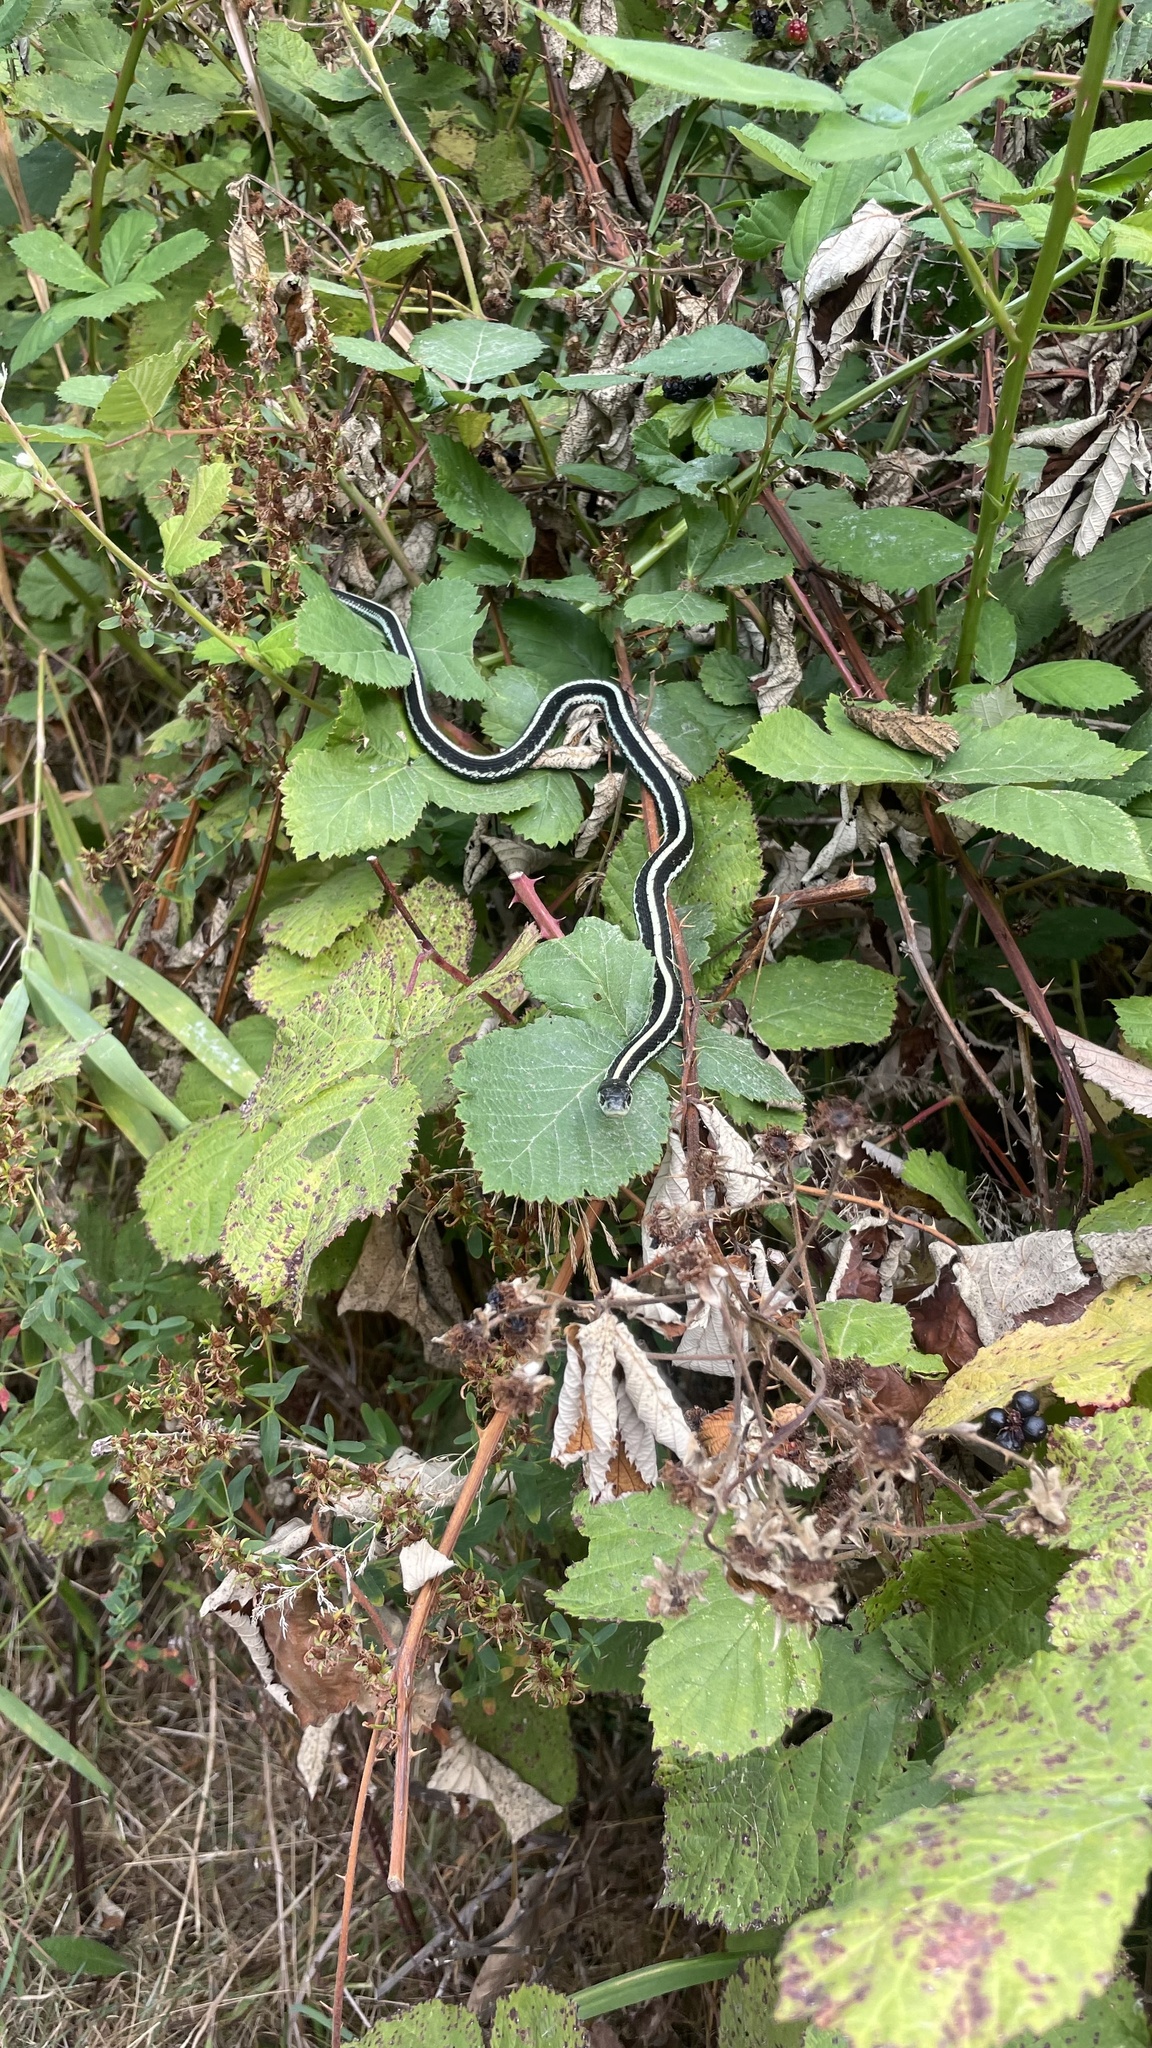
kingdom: Animalia
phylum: Chordata
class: Squamata
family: Colubridae
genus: Thamnophis
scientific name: Thamnophis sirtalis
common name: Common garter snake
